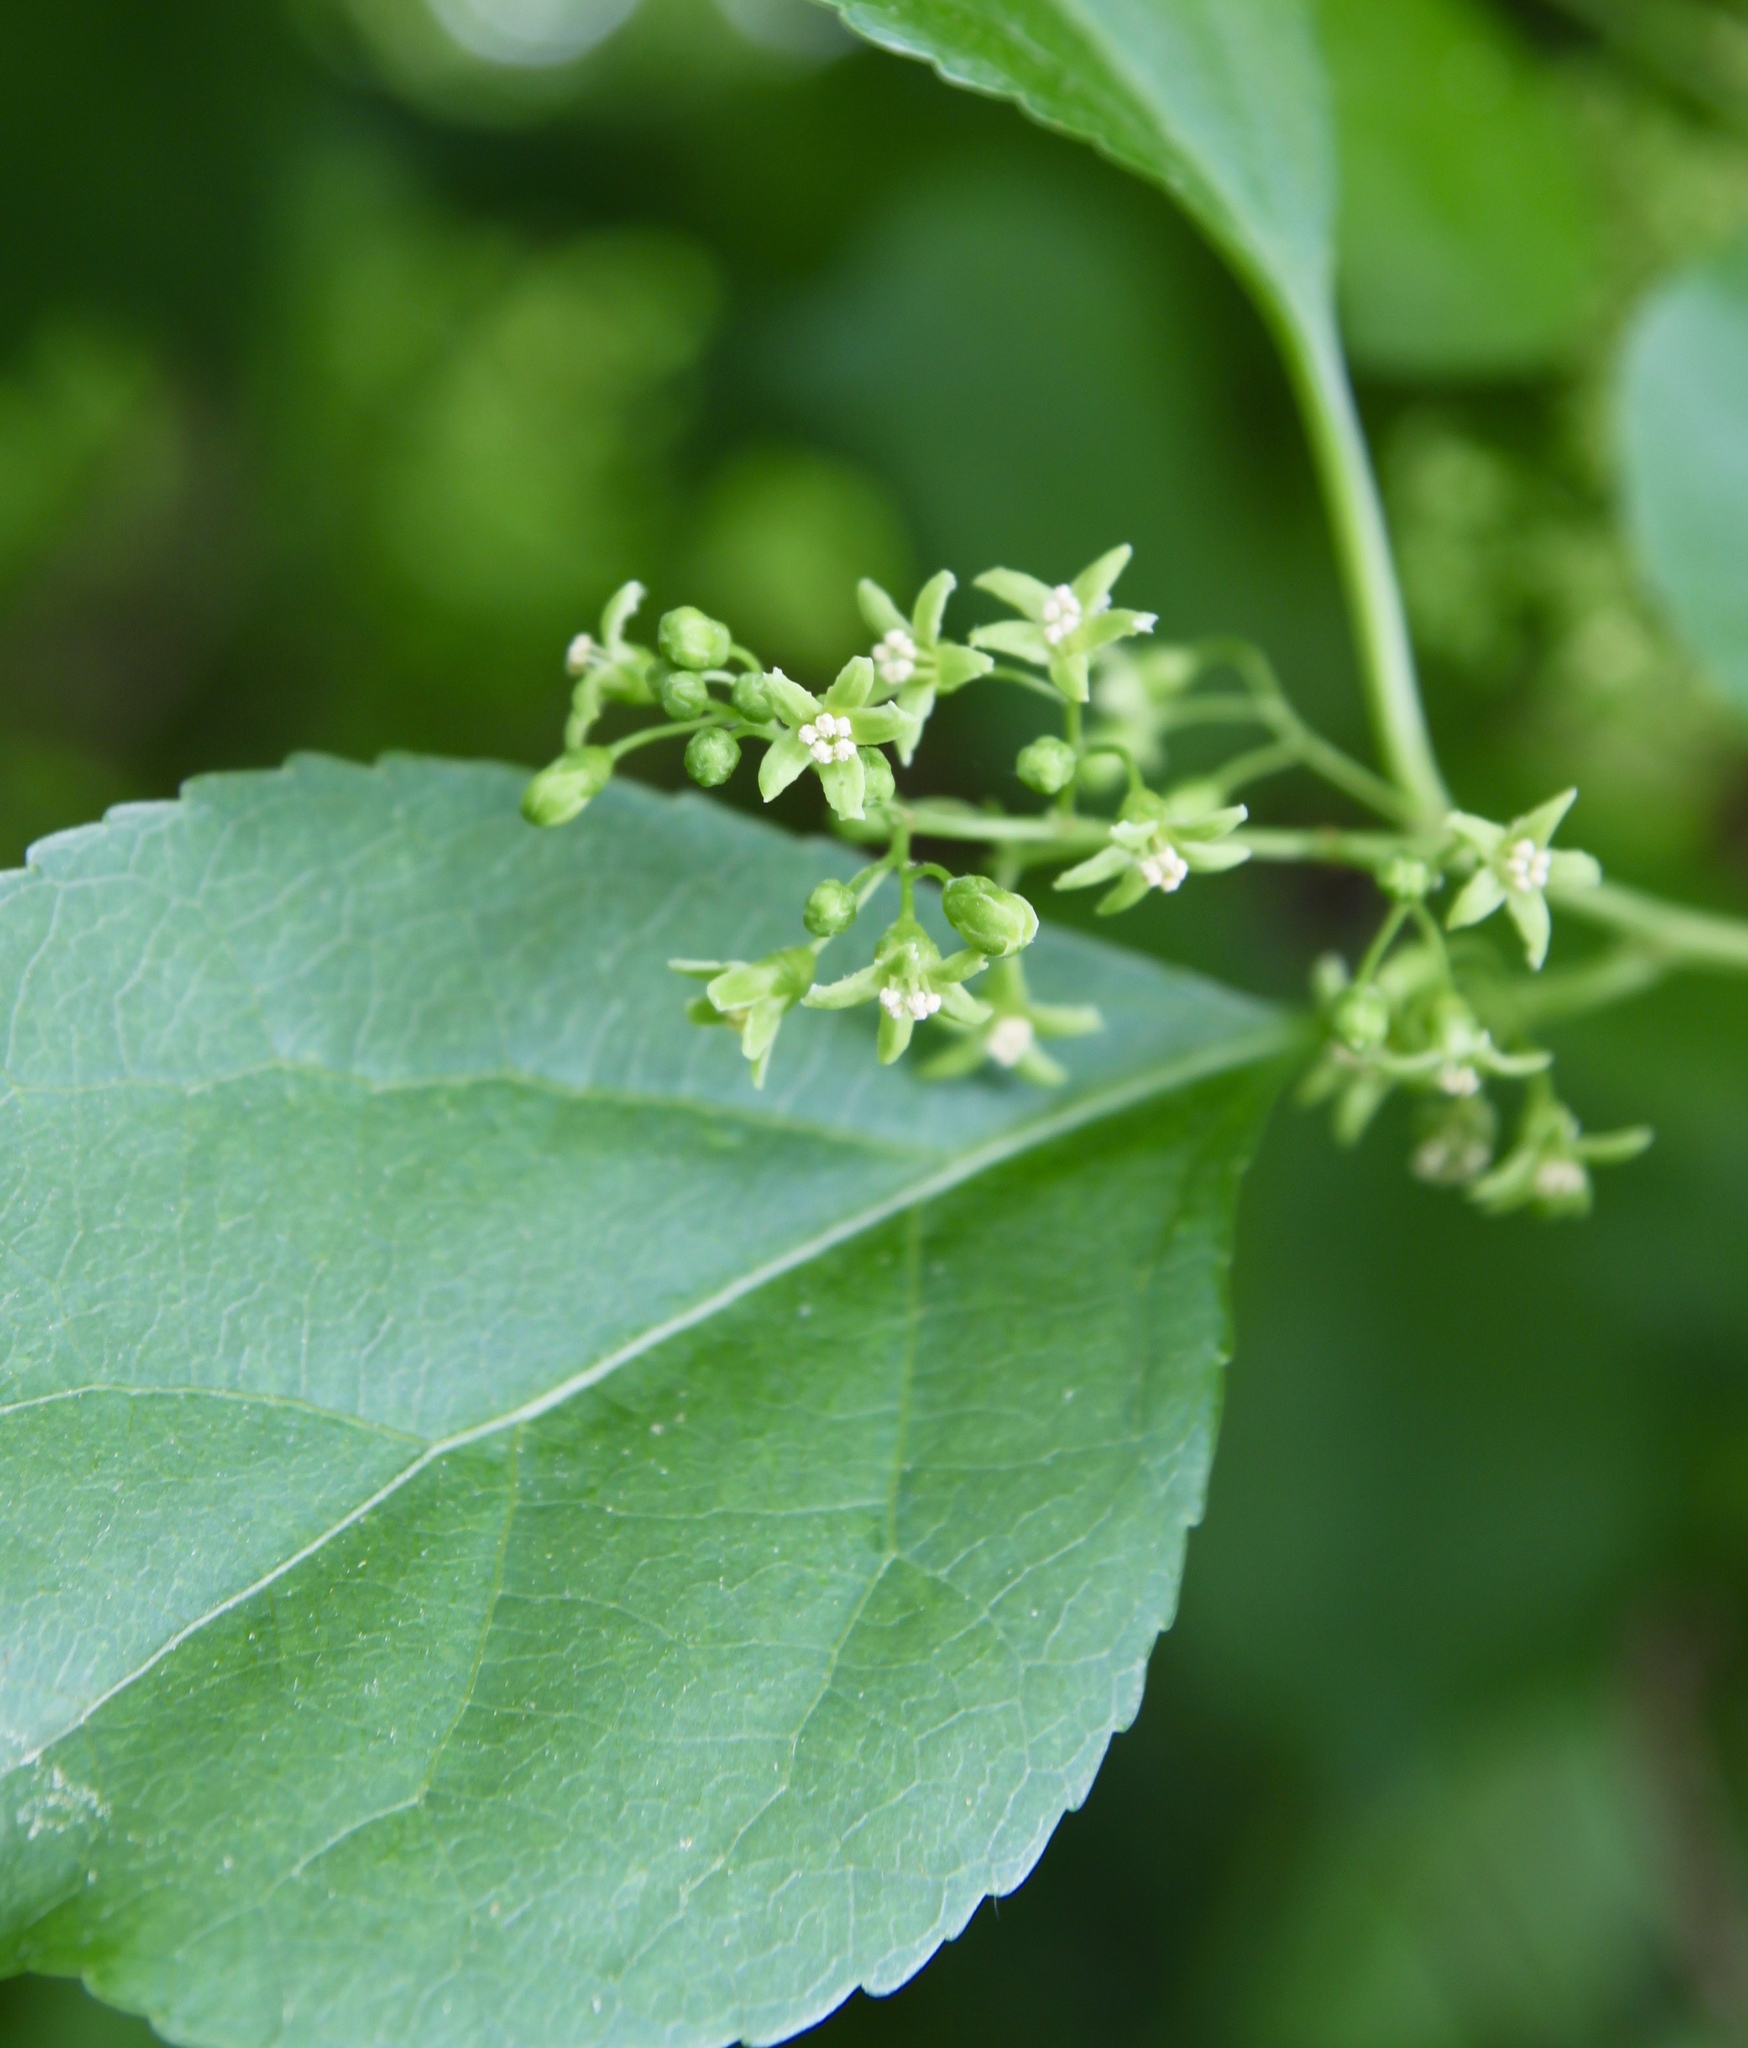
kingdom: Plantae
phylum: Tracheophyta
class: Magnoliopsida
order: Celastrales
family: Celastraceae
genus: Celastrus
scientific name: Celastrus orbiculatus
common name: Oriental bittersweet
